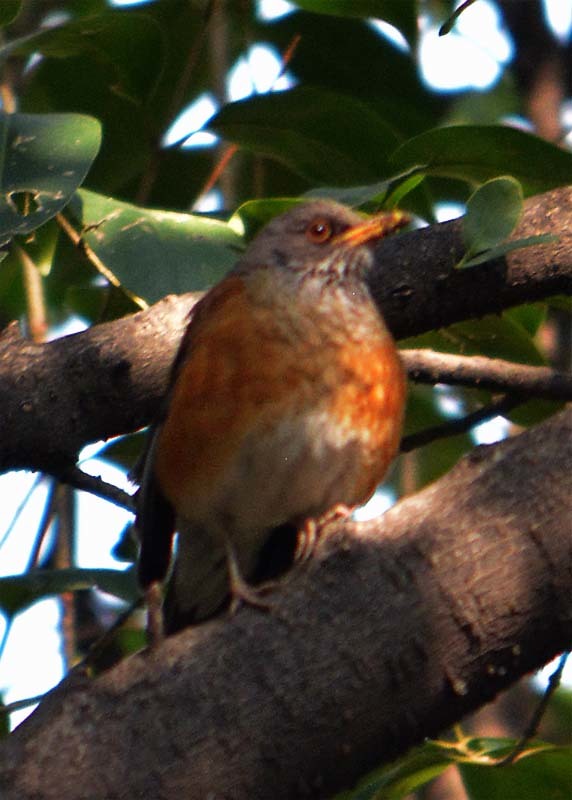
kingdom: Animalia
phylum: Chordata
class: Aves
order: Passeriformes
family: Turdidae
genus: Turdus
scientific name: Turdus rufopalliatus
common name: Rufous-backed robin
